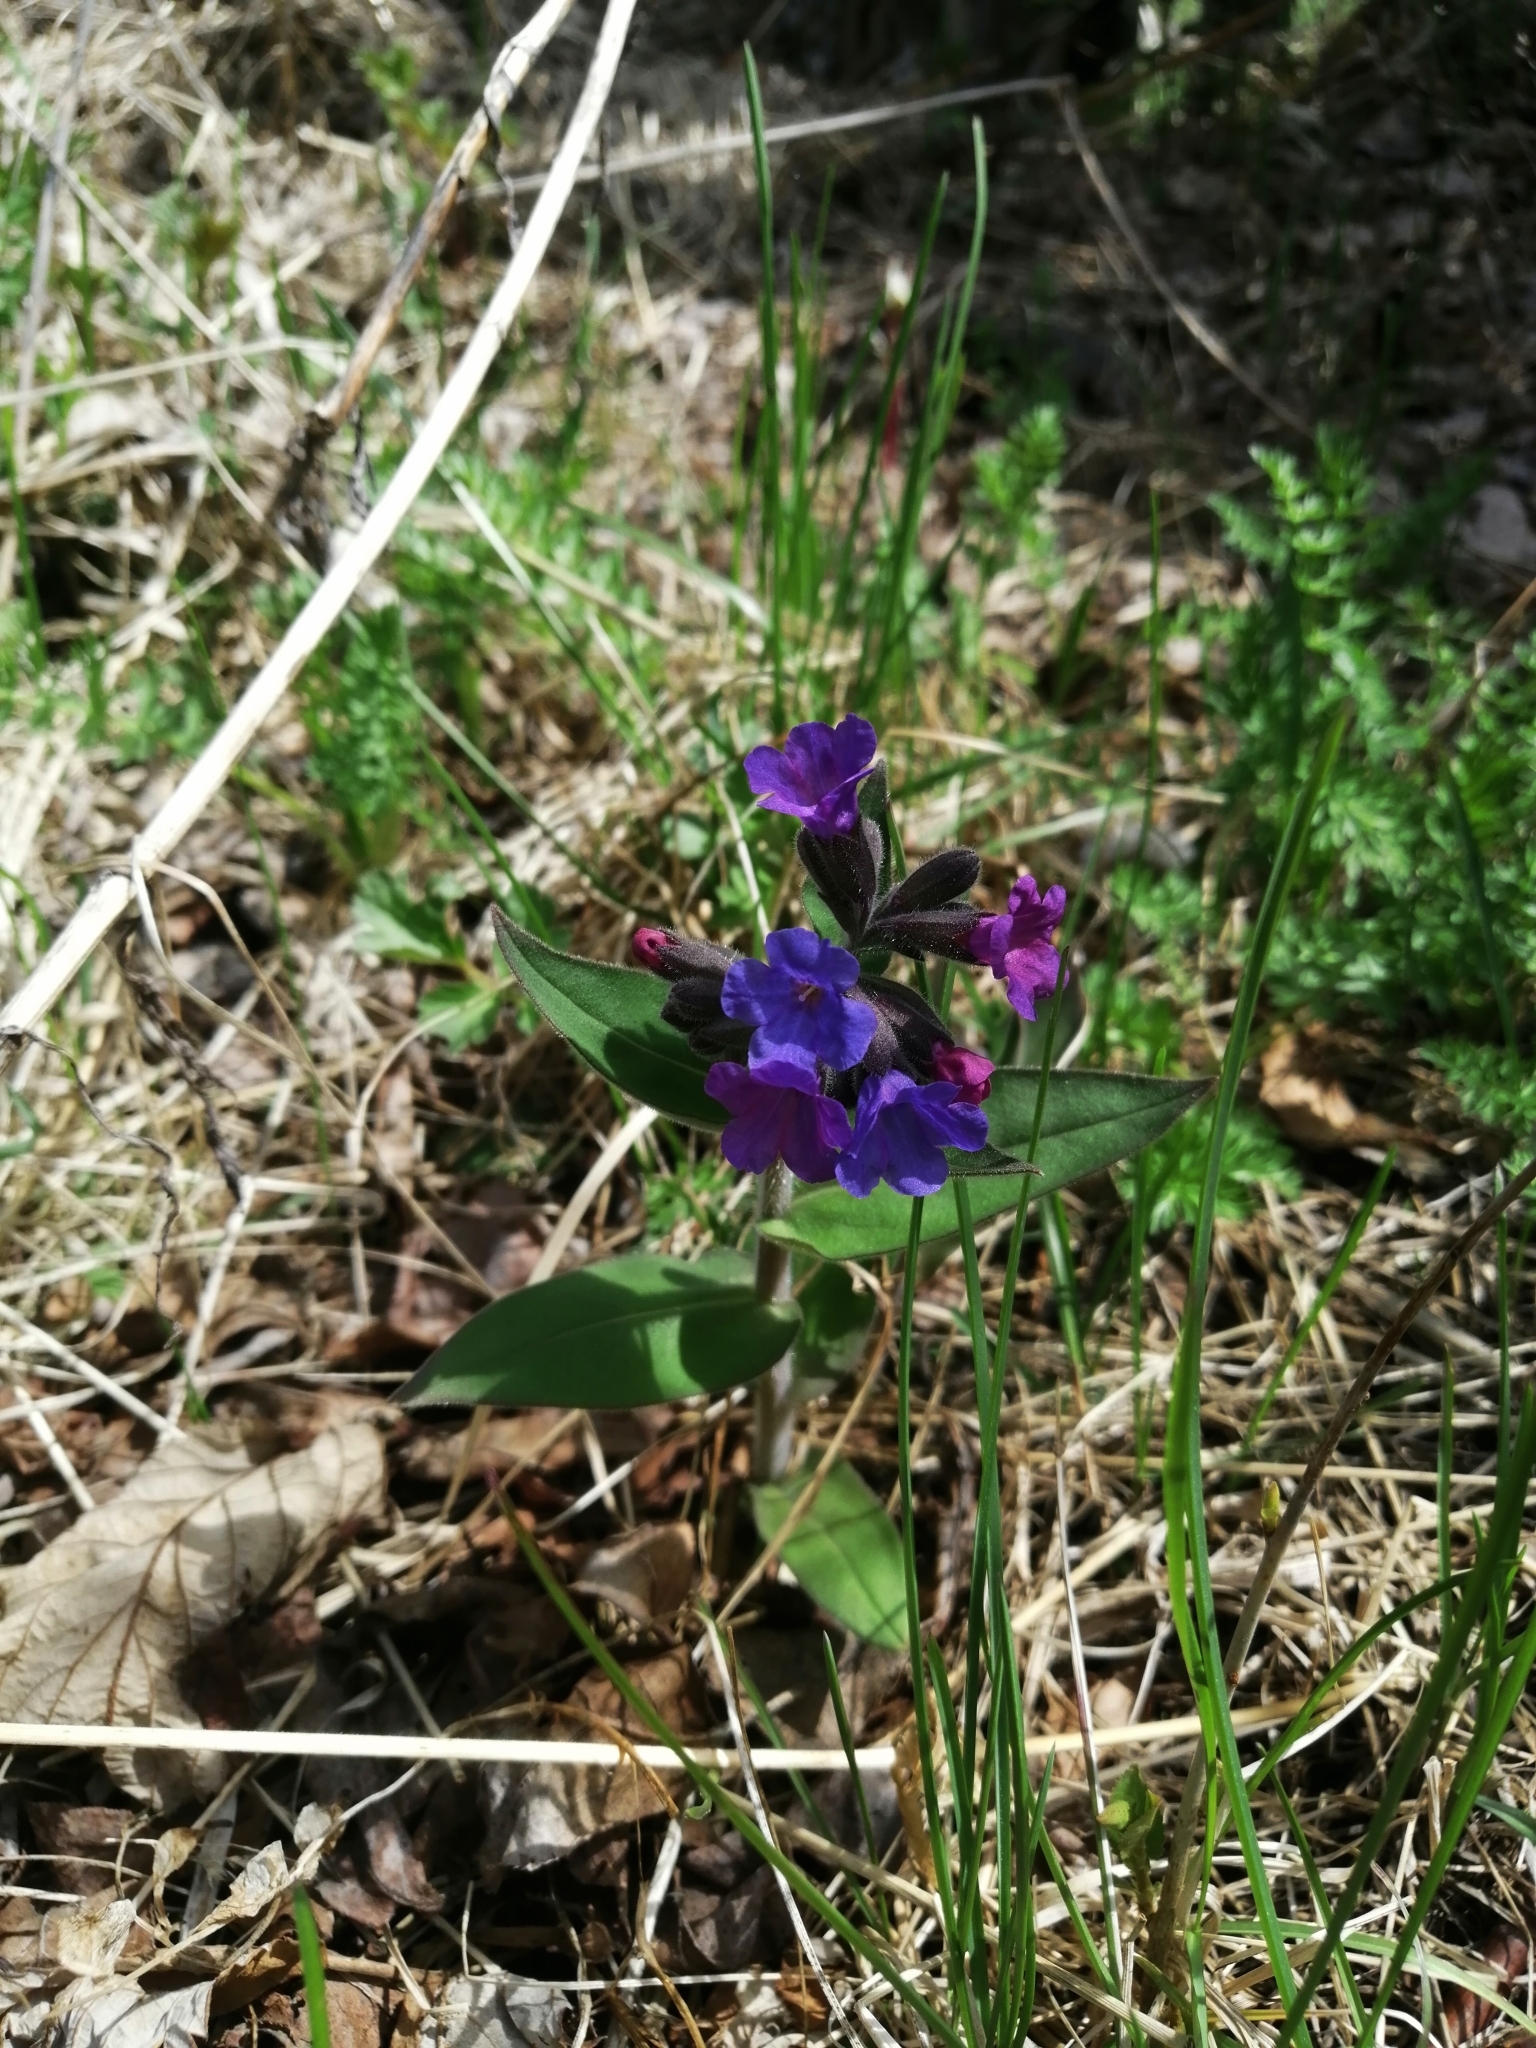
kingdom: Plantae
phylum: Tracheophyta
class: Magnoliopsida
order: Boraginales
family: Boraginaceae
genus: Pulmonaria
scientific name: Pulmonaria mollis
